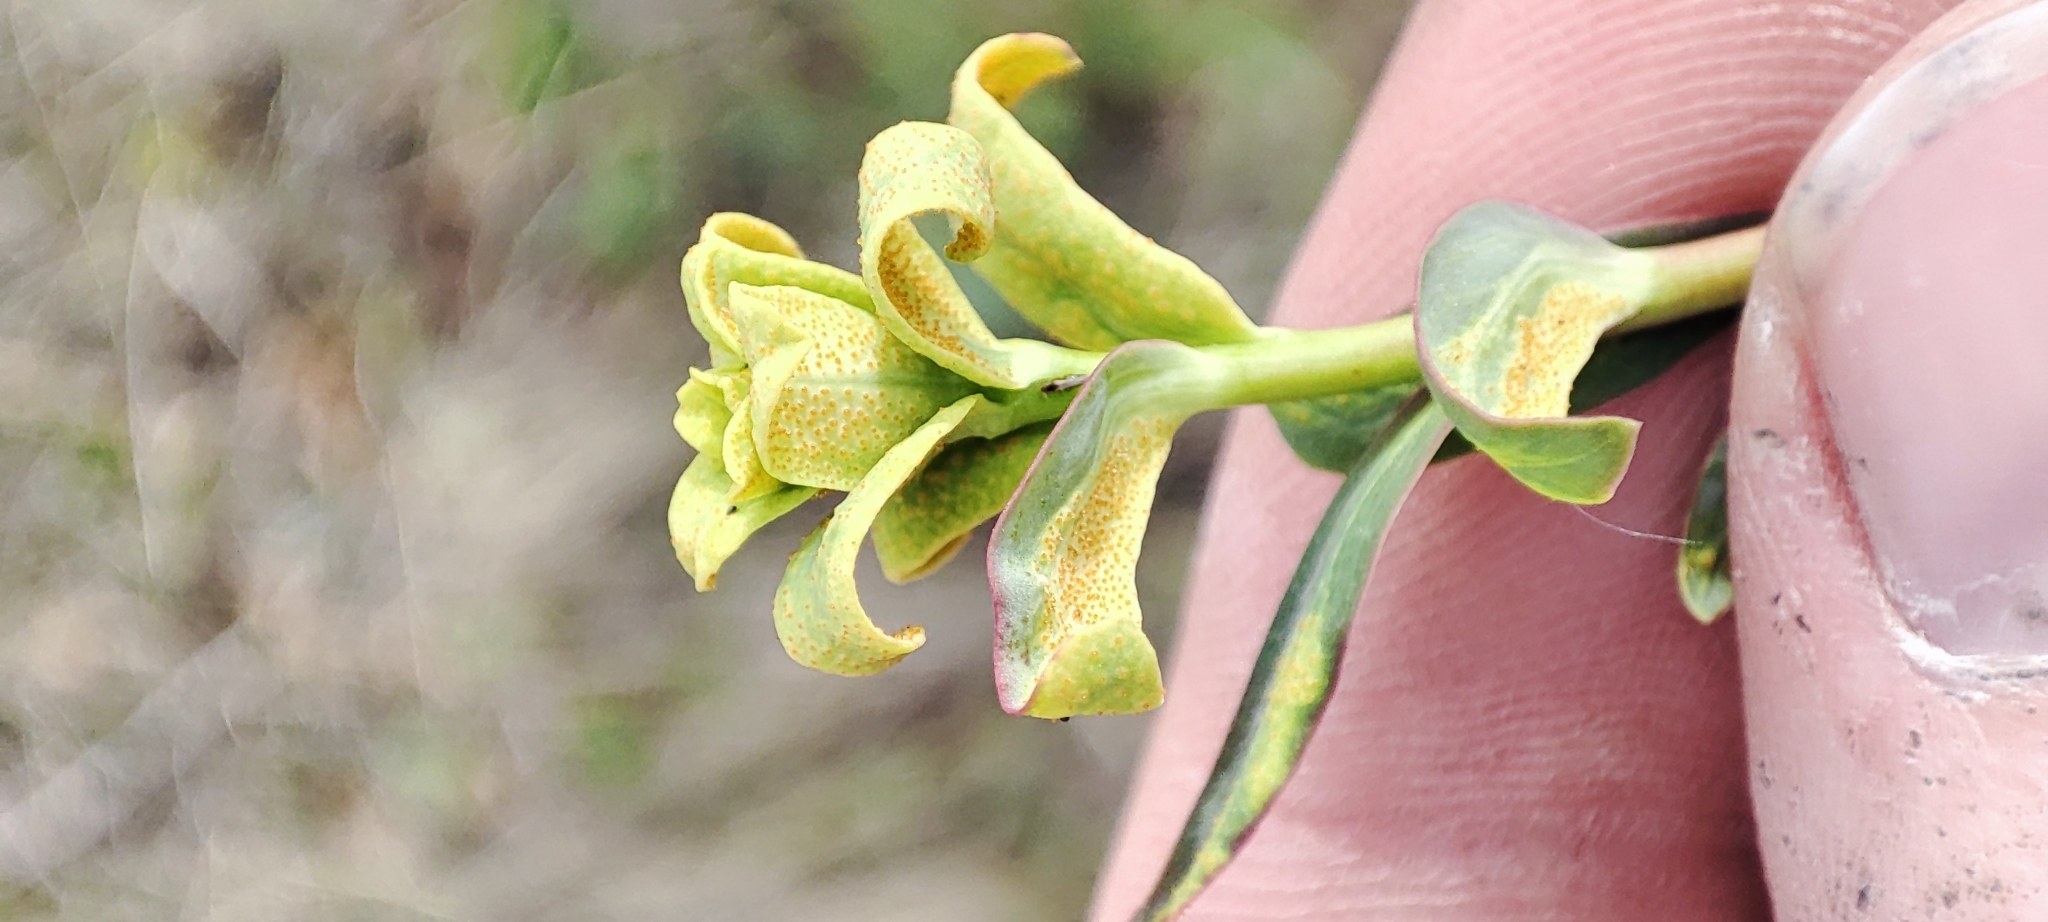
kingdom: Plantae
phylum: Tracheophyta
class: Magnoliopsida
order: Malpighiales
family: Euphorbiaceae
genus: Euphorbia
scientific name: Euphorbia virgata
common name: Leafy spurge
